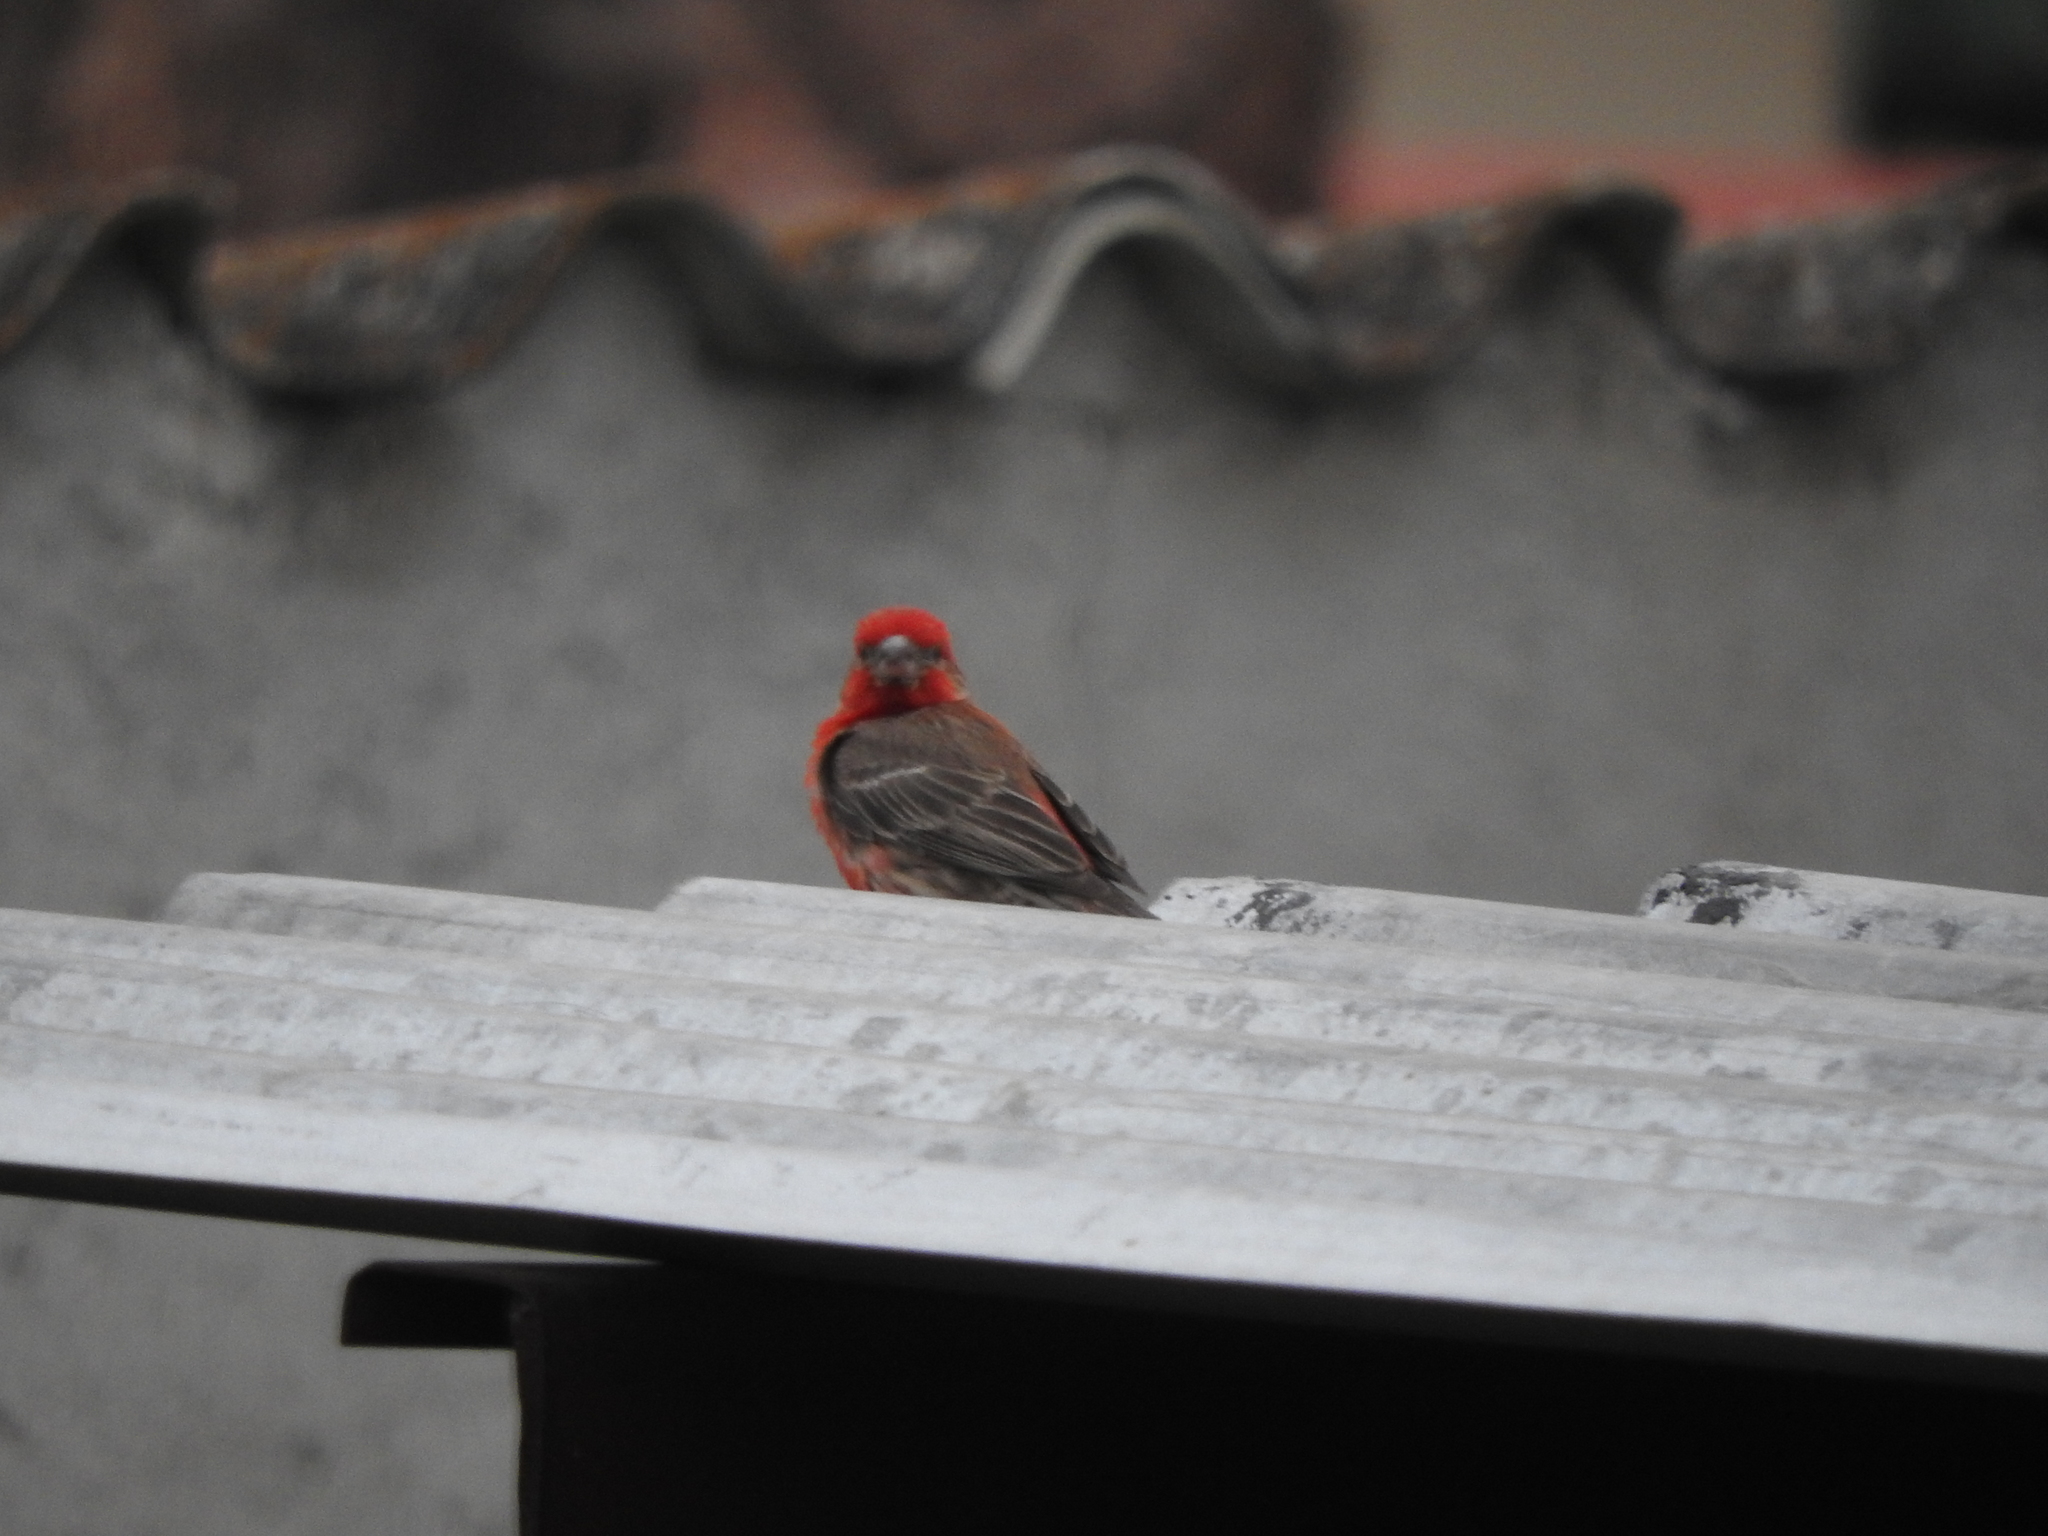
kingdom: Animalia
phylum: Chordata
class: Aves
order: Passeriformes
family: Fringillidae
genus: Haemorhous
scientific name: Haemorhous mexicanus
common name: House finch
